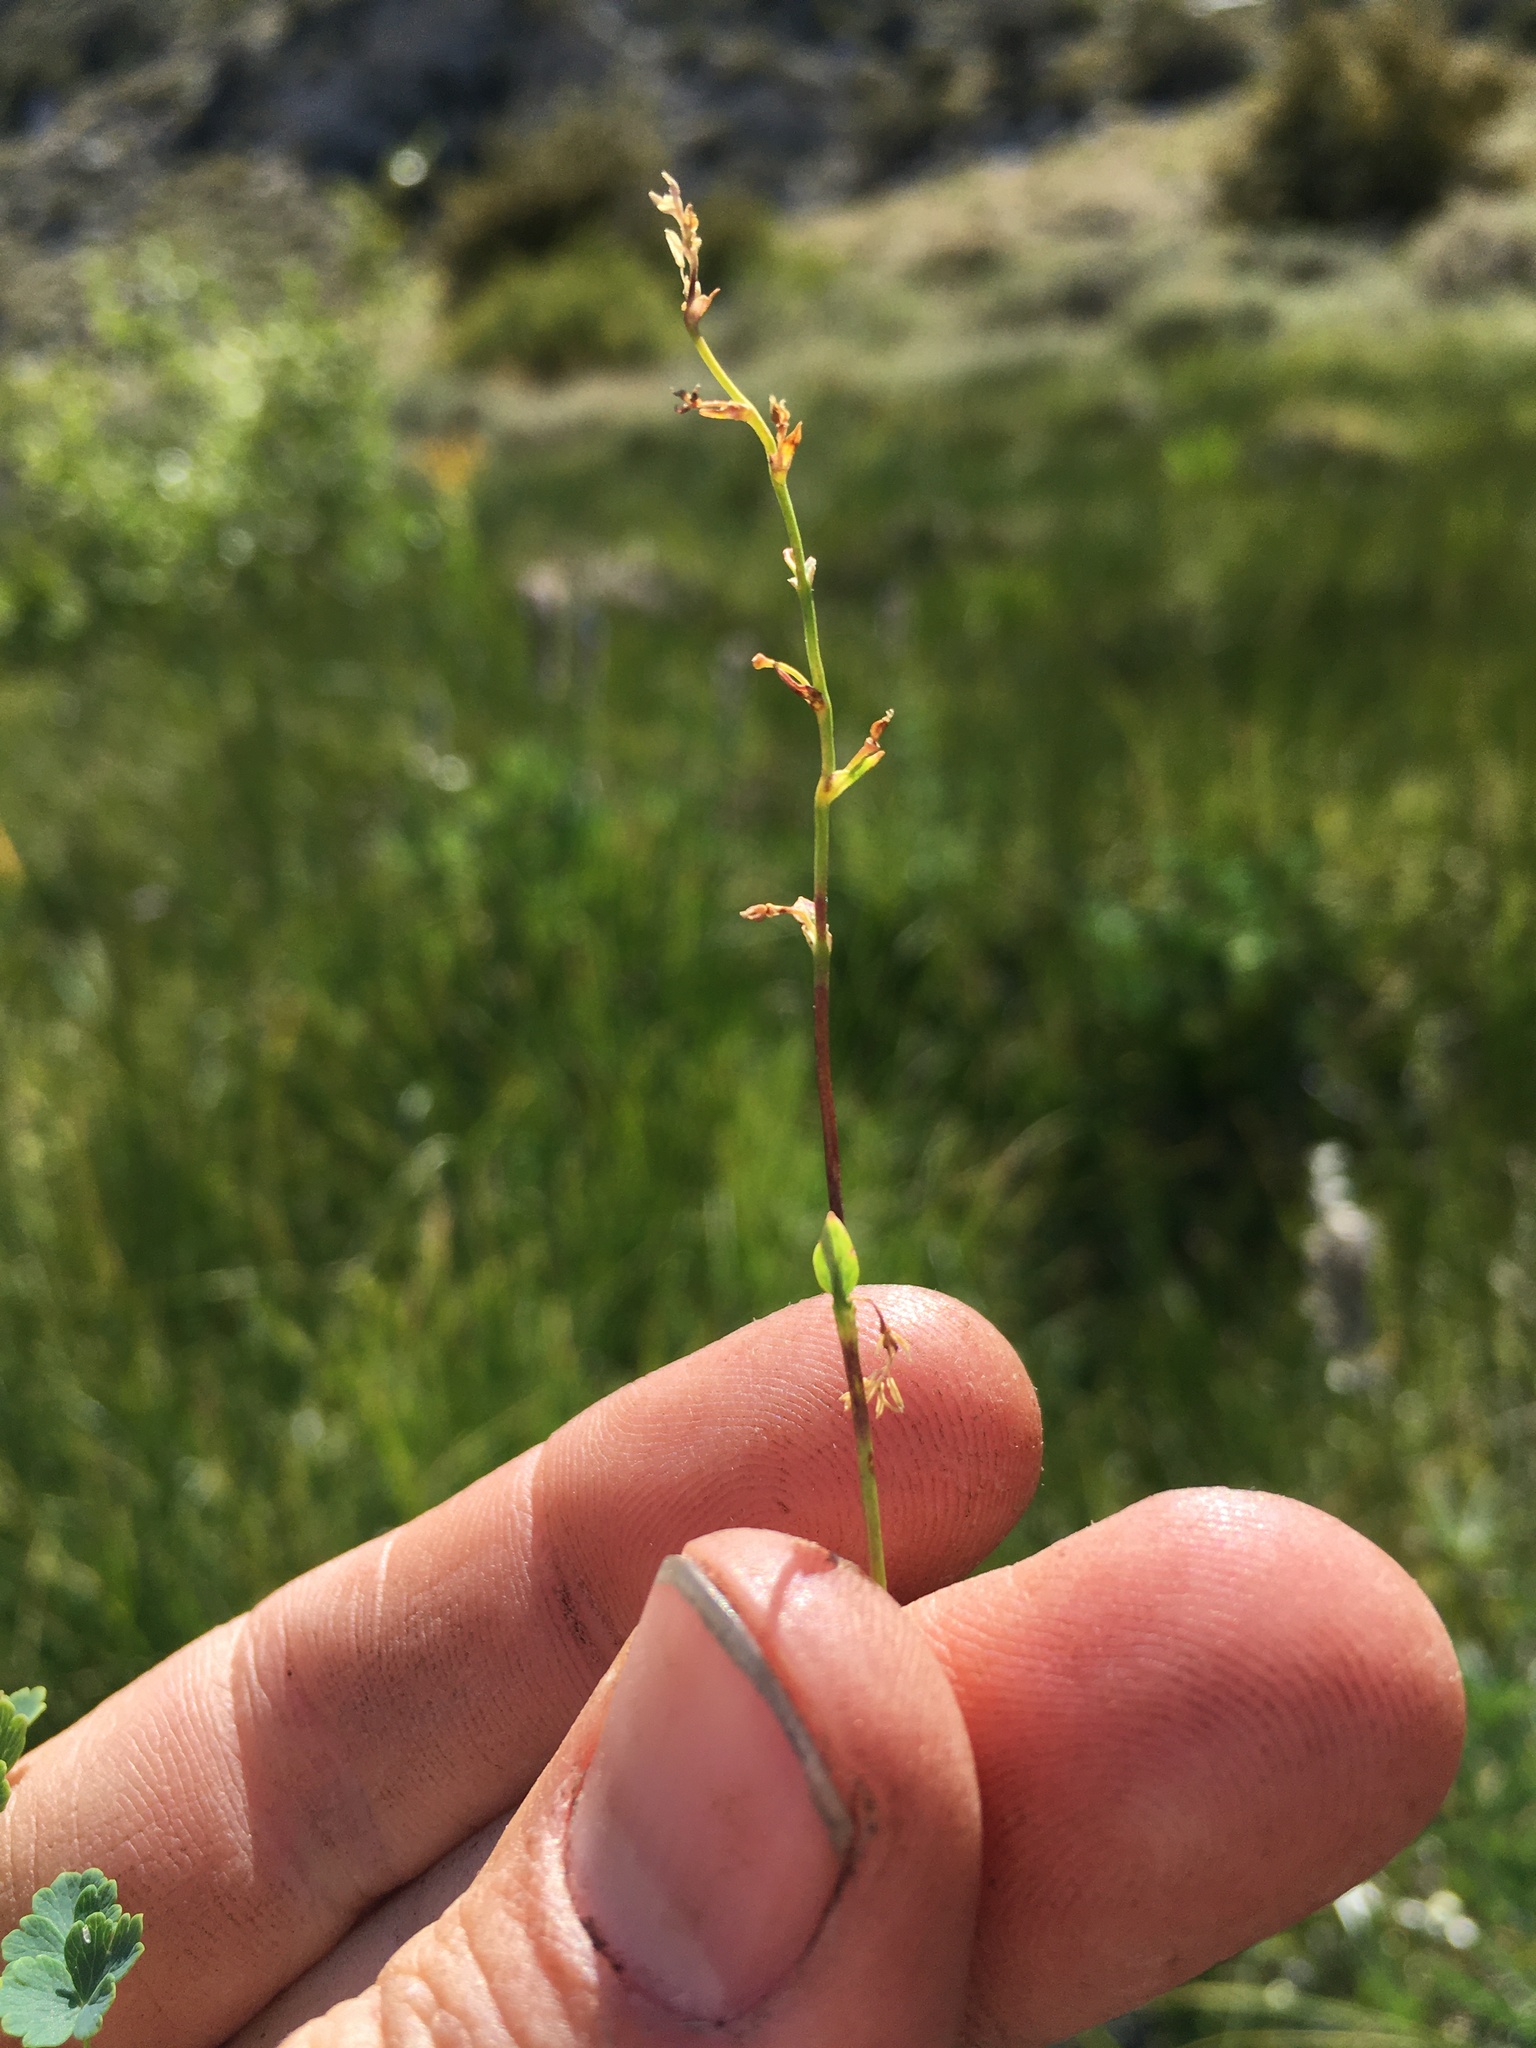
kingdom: Plantae
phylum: Tracheophyta
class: Magnoliopsida
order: Ranunculales
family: Ranunculaceae
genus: Thalictrum
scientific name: Thalictrum alpinum
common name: Alpine meadow-rue
